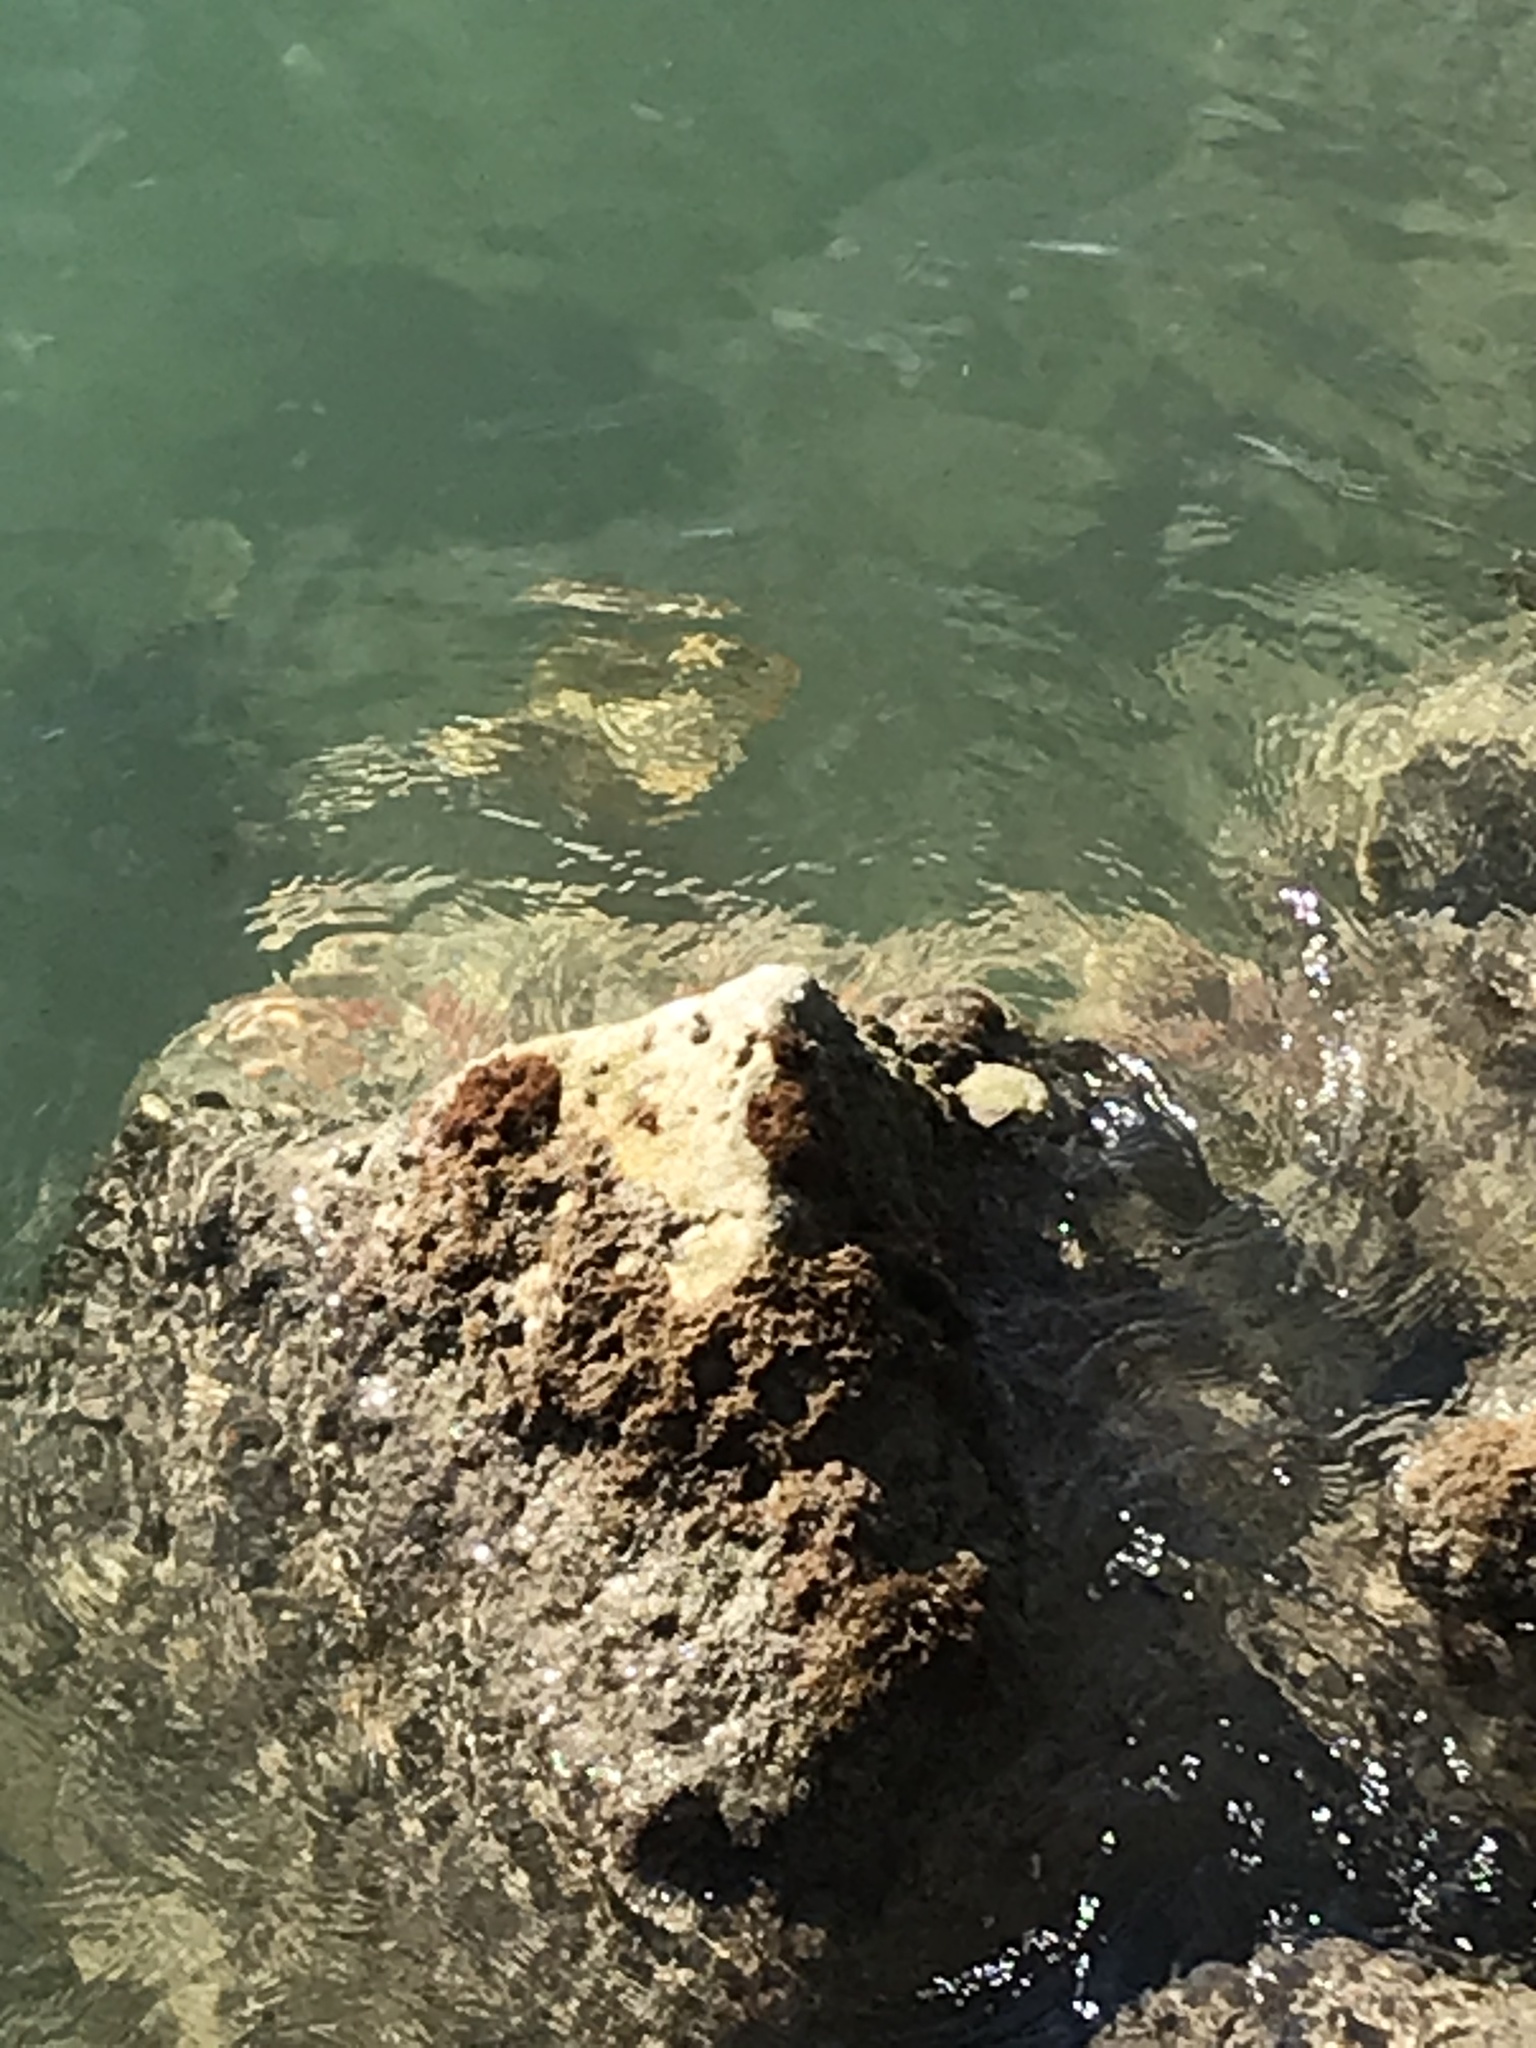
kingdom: Animalia
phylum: Chordata
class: Elasmobranchii
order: Myliobatiformes
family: Urotrygonidae
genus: Urobatis
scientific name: Urobatis jamaicensis
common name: Yellow stingray
